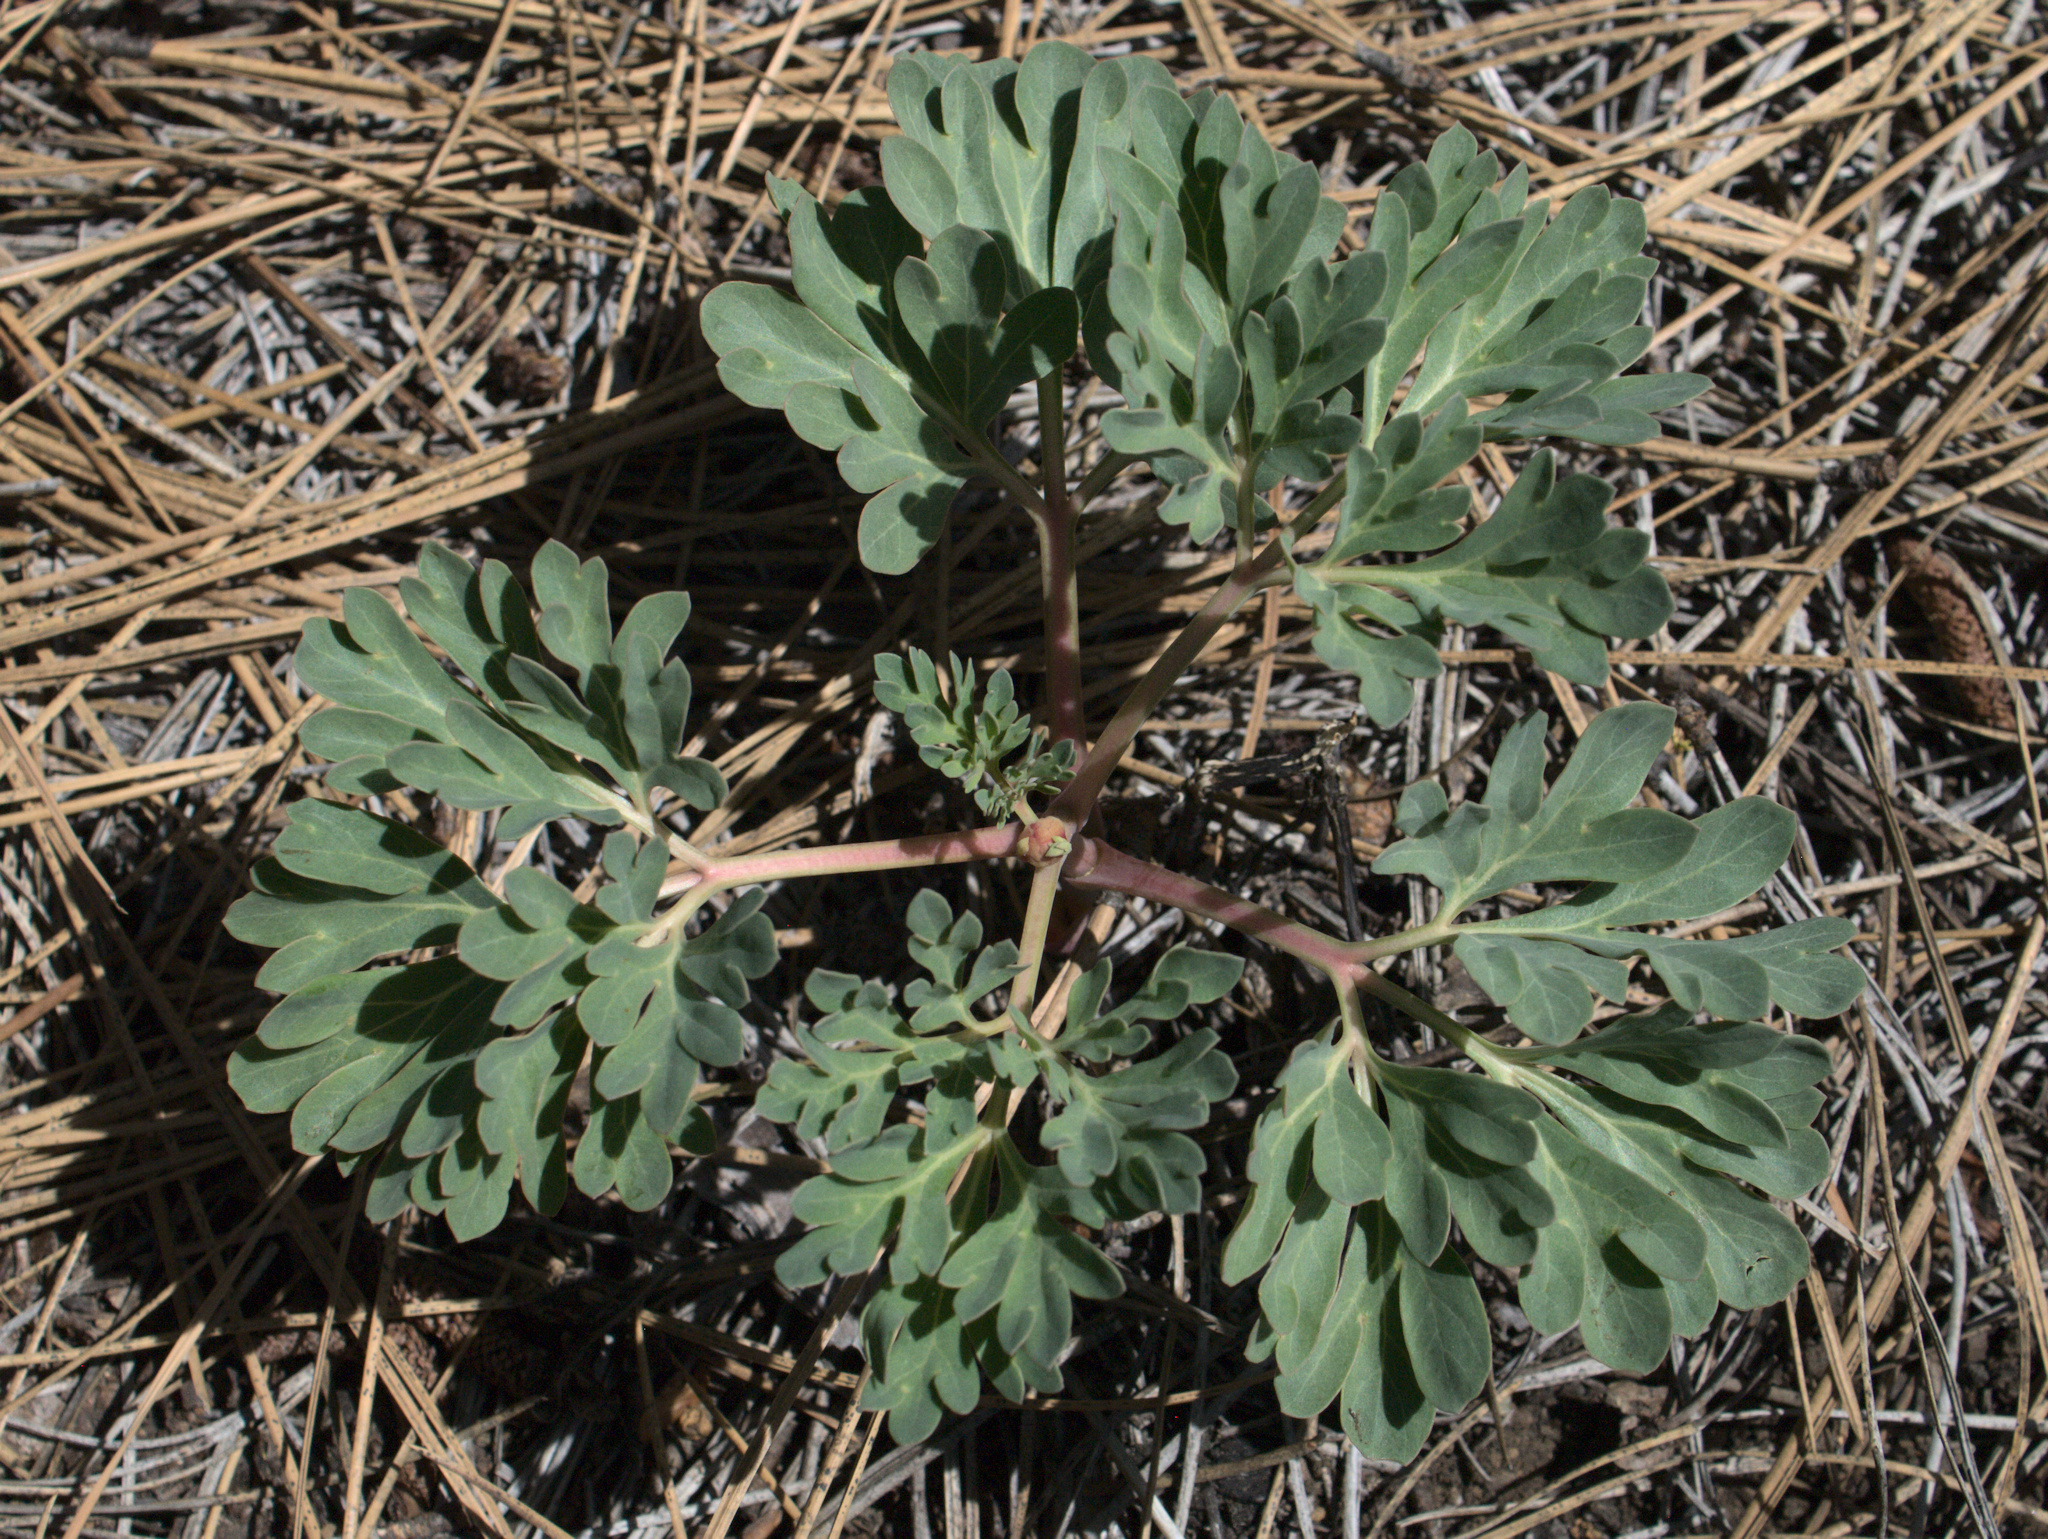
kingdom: Plantae
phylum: Tracheophyta
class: Magnoliopsida
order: Saxifragales
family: Paeoniaceae
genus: Paeonia
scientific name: Paeonia brownii
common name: Brown's peony
